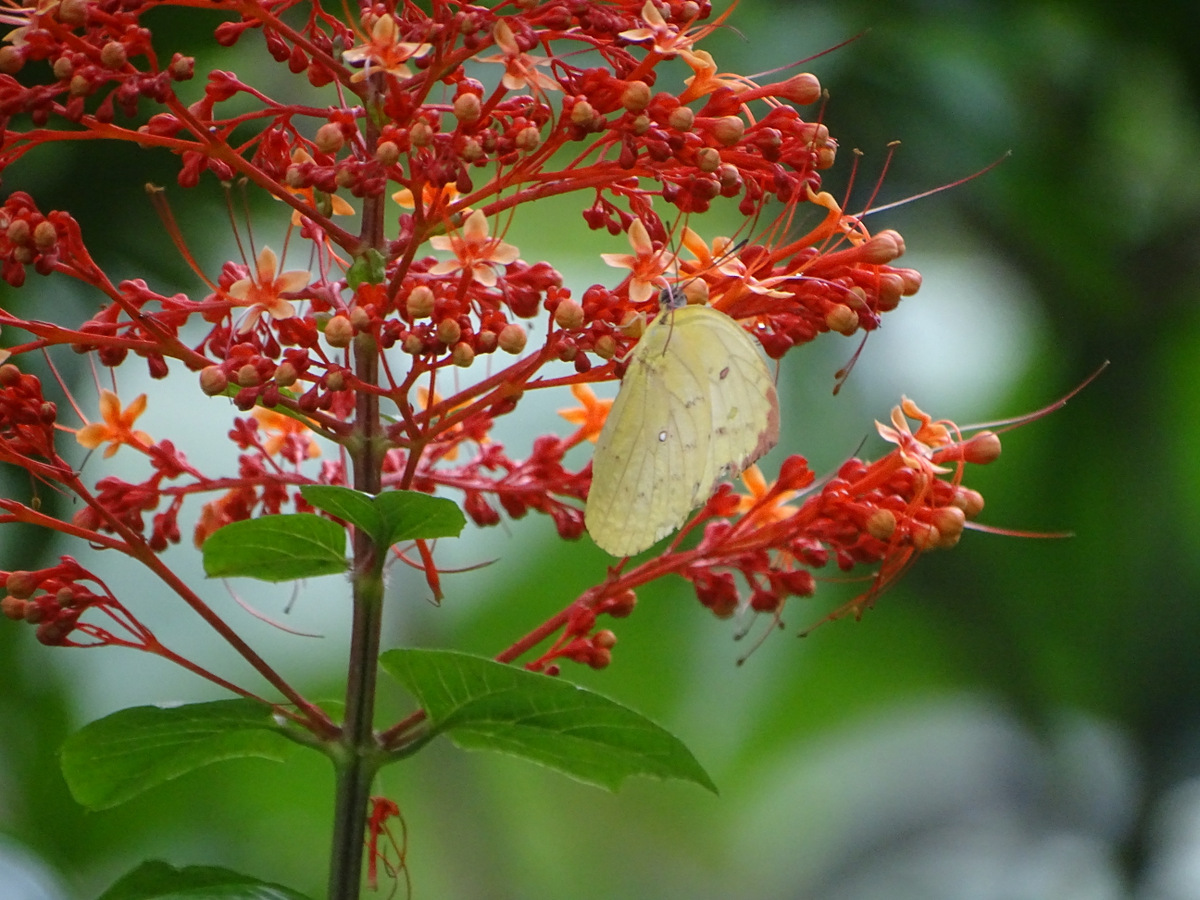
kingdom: Animalia
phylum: Arthropoda
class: Insecta
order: Lepidoptera
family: Pieridae
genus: Catopsilia
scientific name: Catopsilia pomona
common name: Common emigrant
